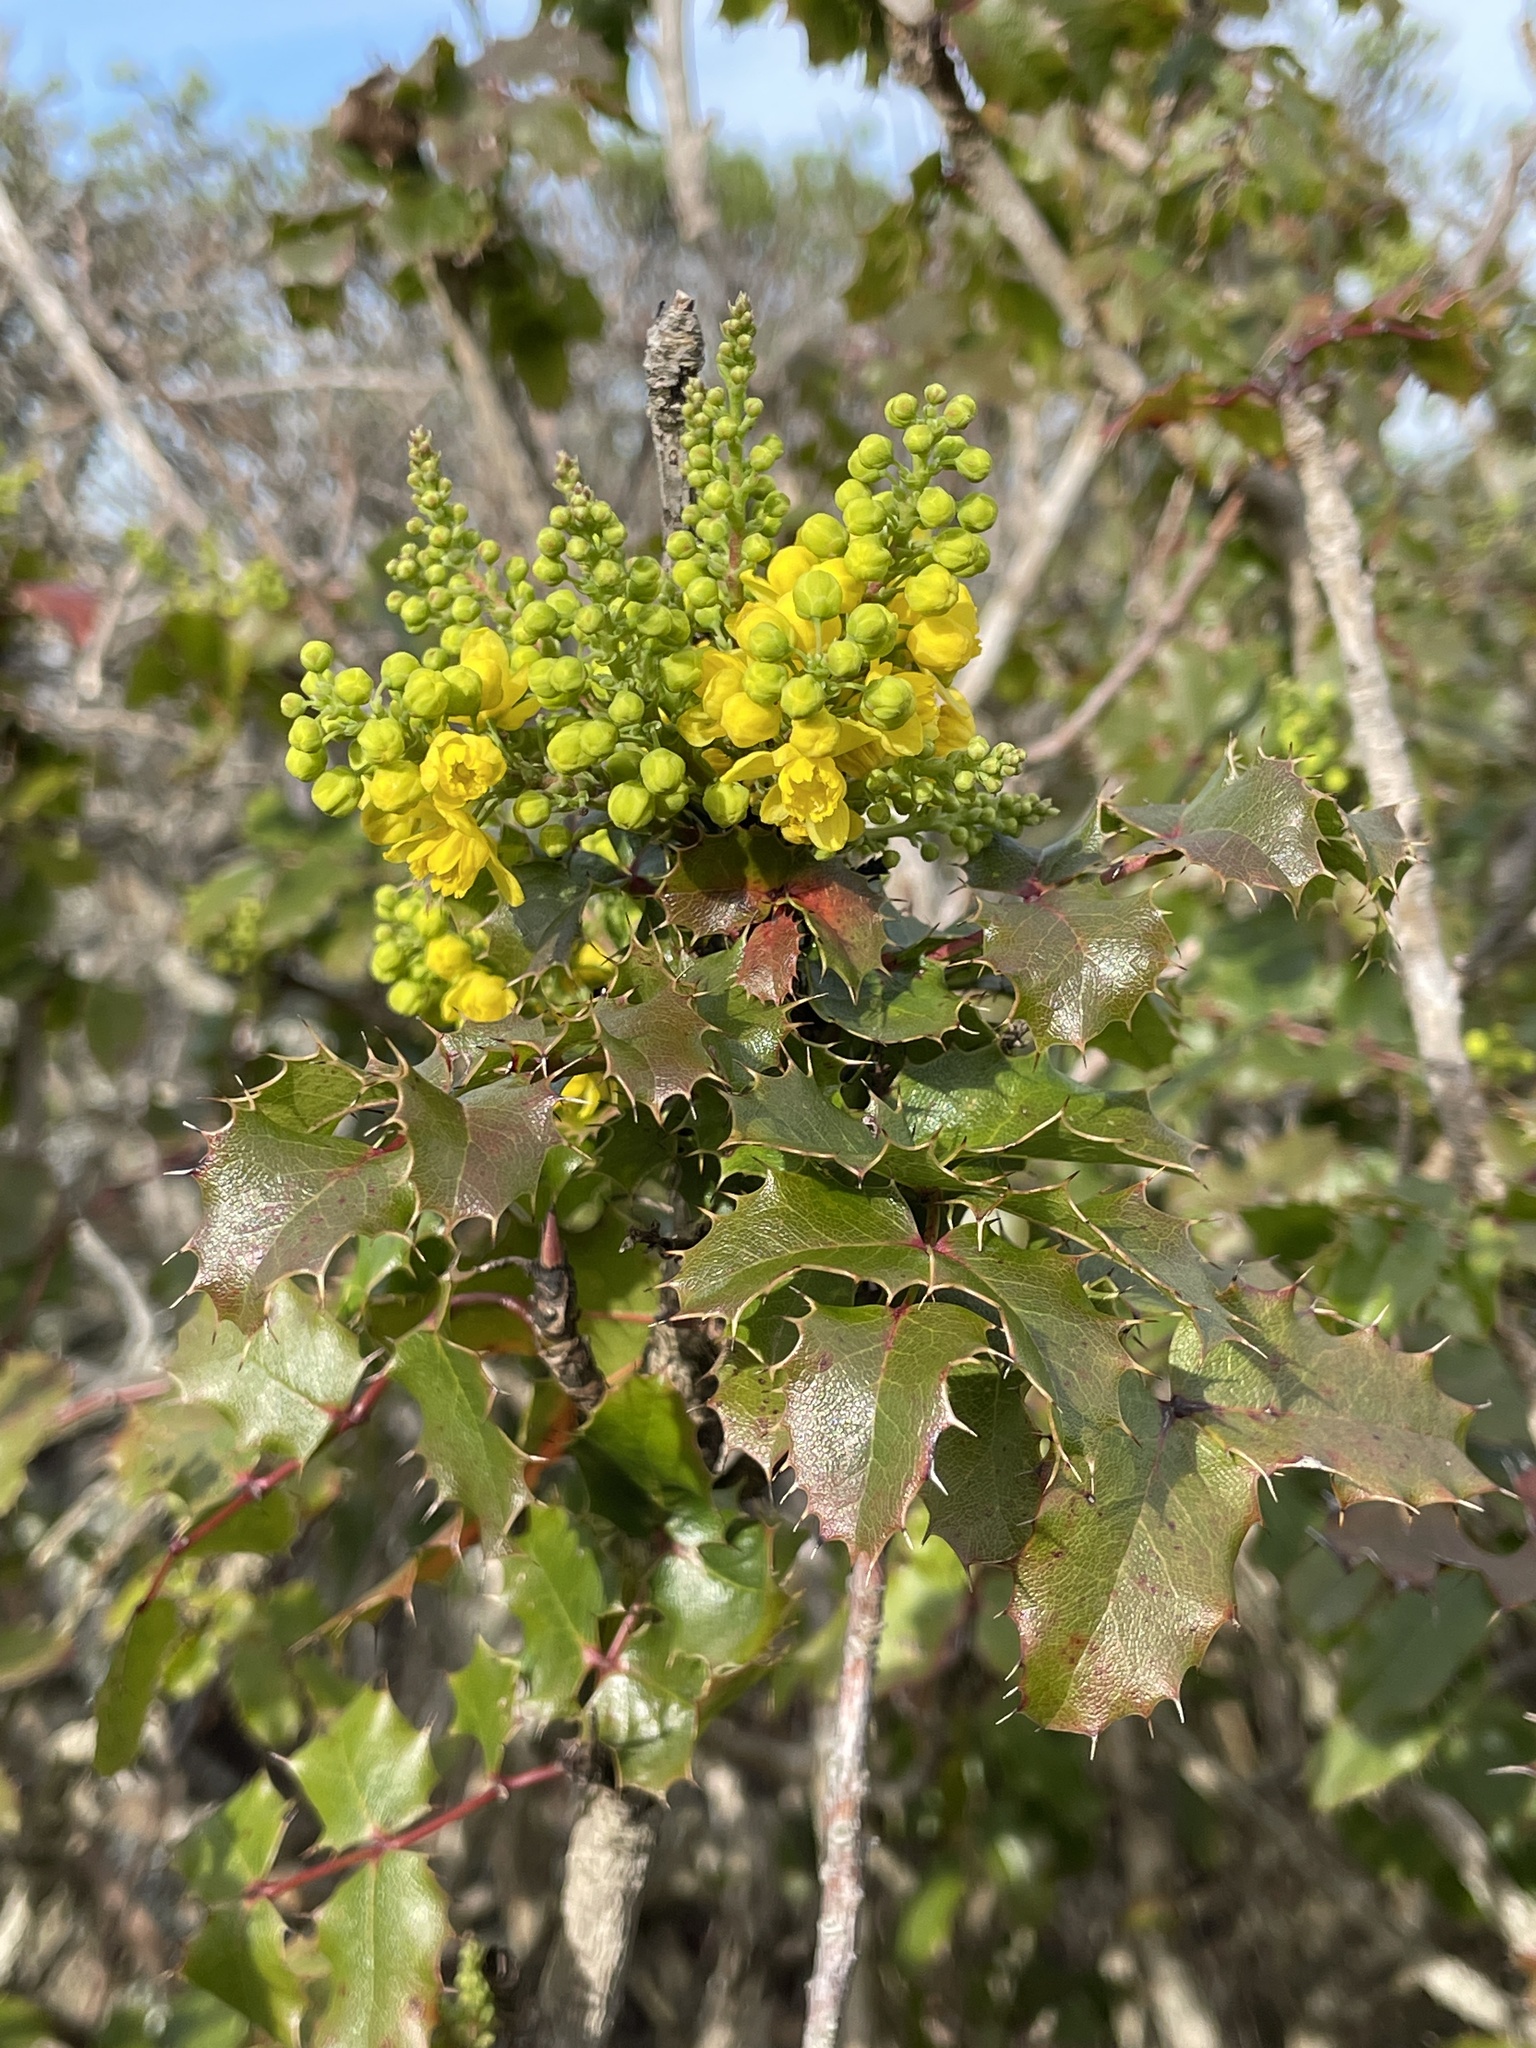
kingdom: Plantae
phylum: Tracheophyta
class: Magnoliopsida
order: Ranunculales
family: Berberidaceae
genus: Mahonia
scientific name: Mahonia
